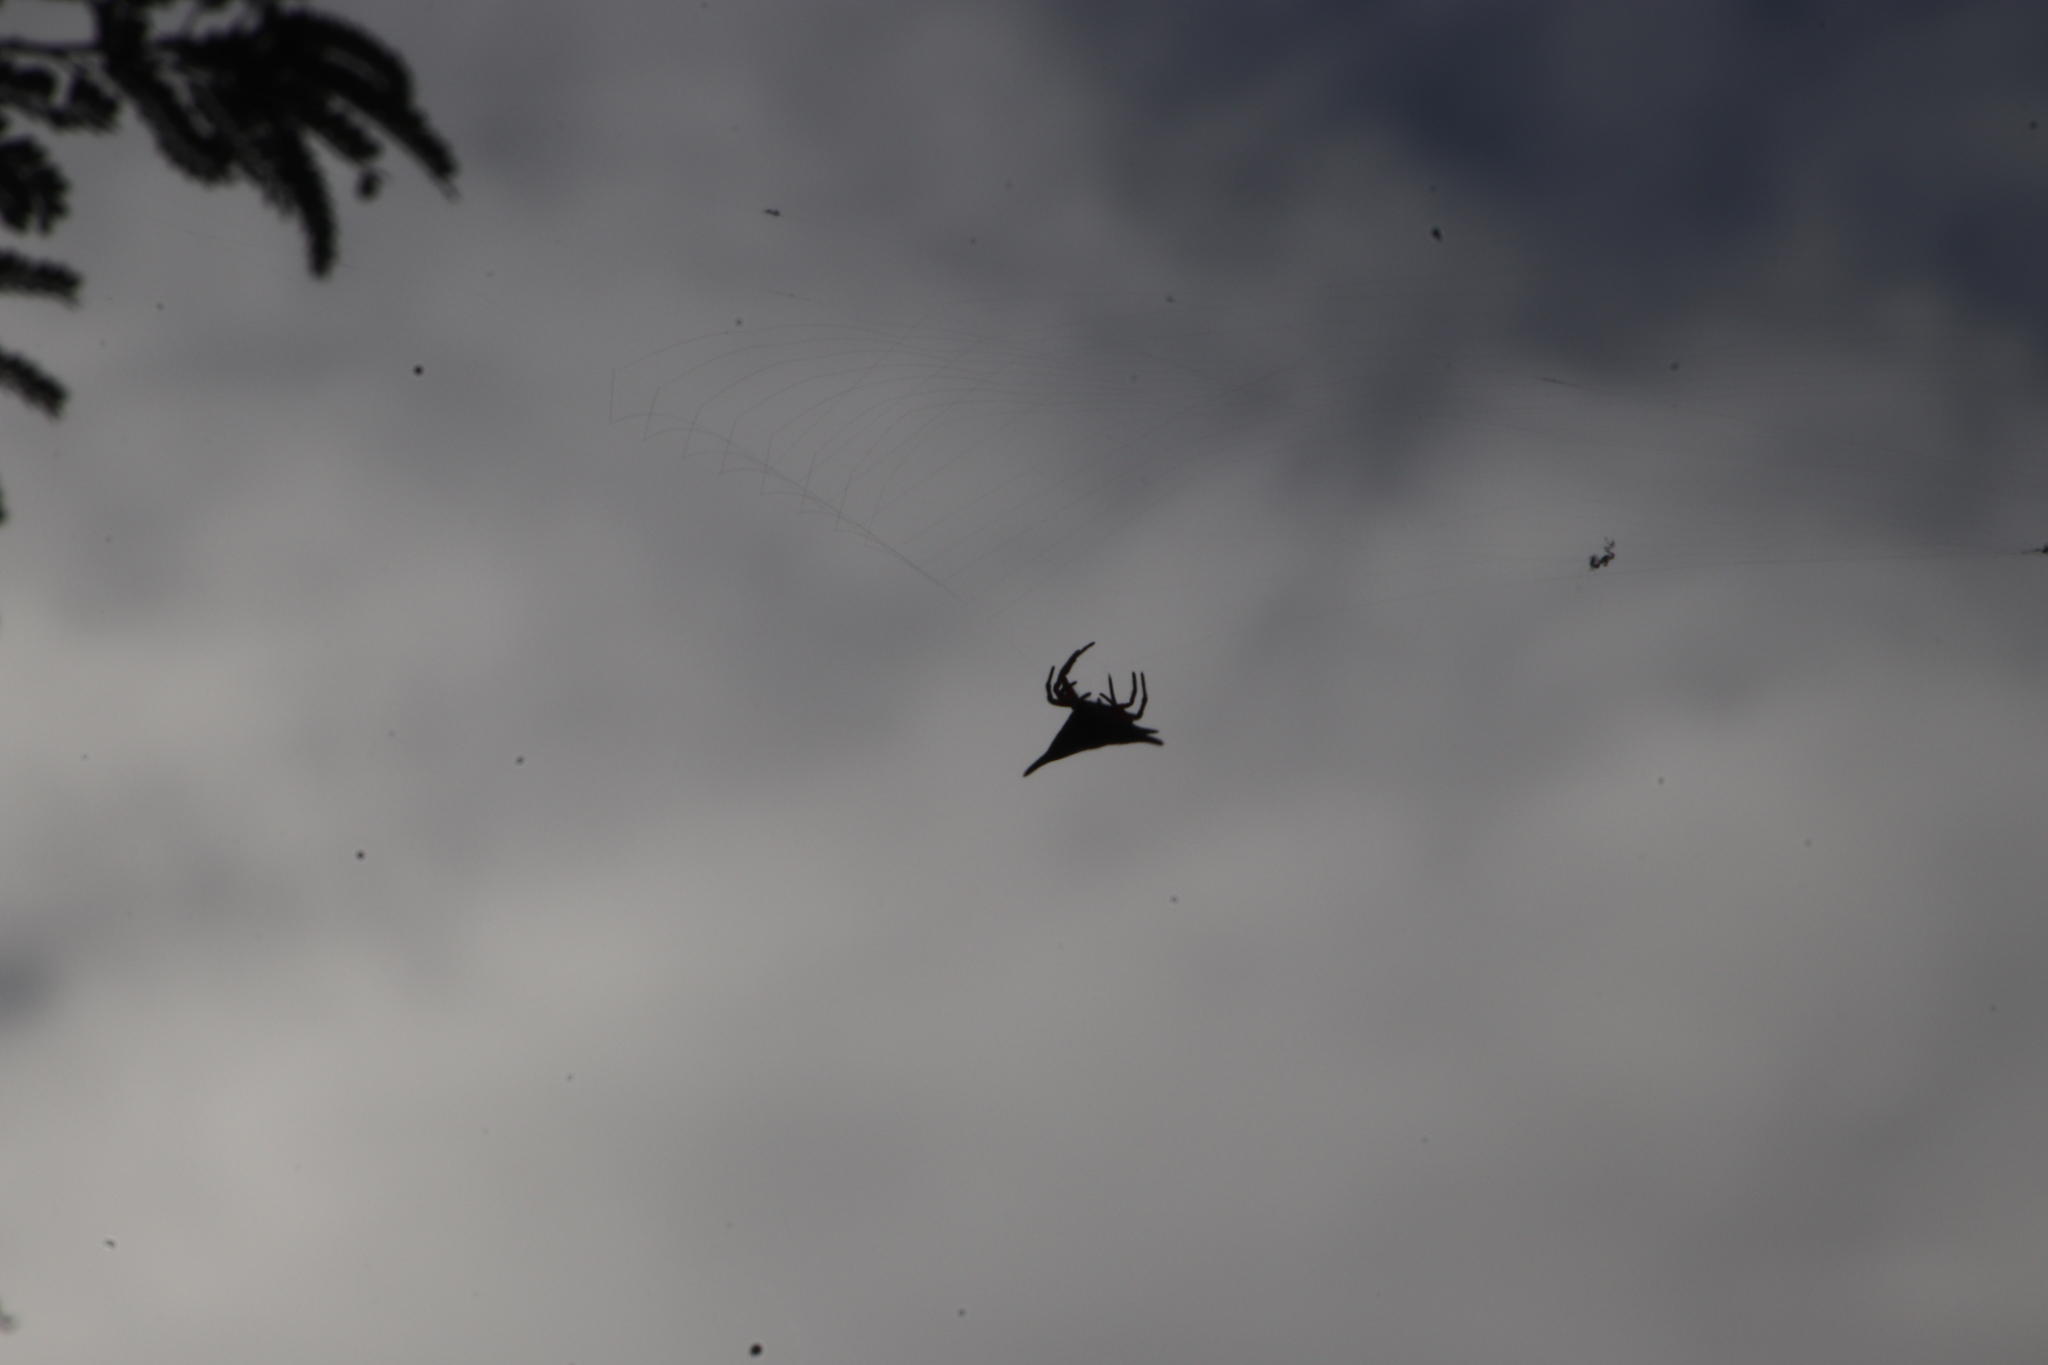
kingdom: Animalia
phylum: Arthropoda
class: Arachnida
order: Araneae
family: Araneidae
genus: Gasteracantha
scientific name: Gasteracantha sanguinolenta
